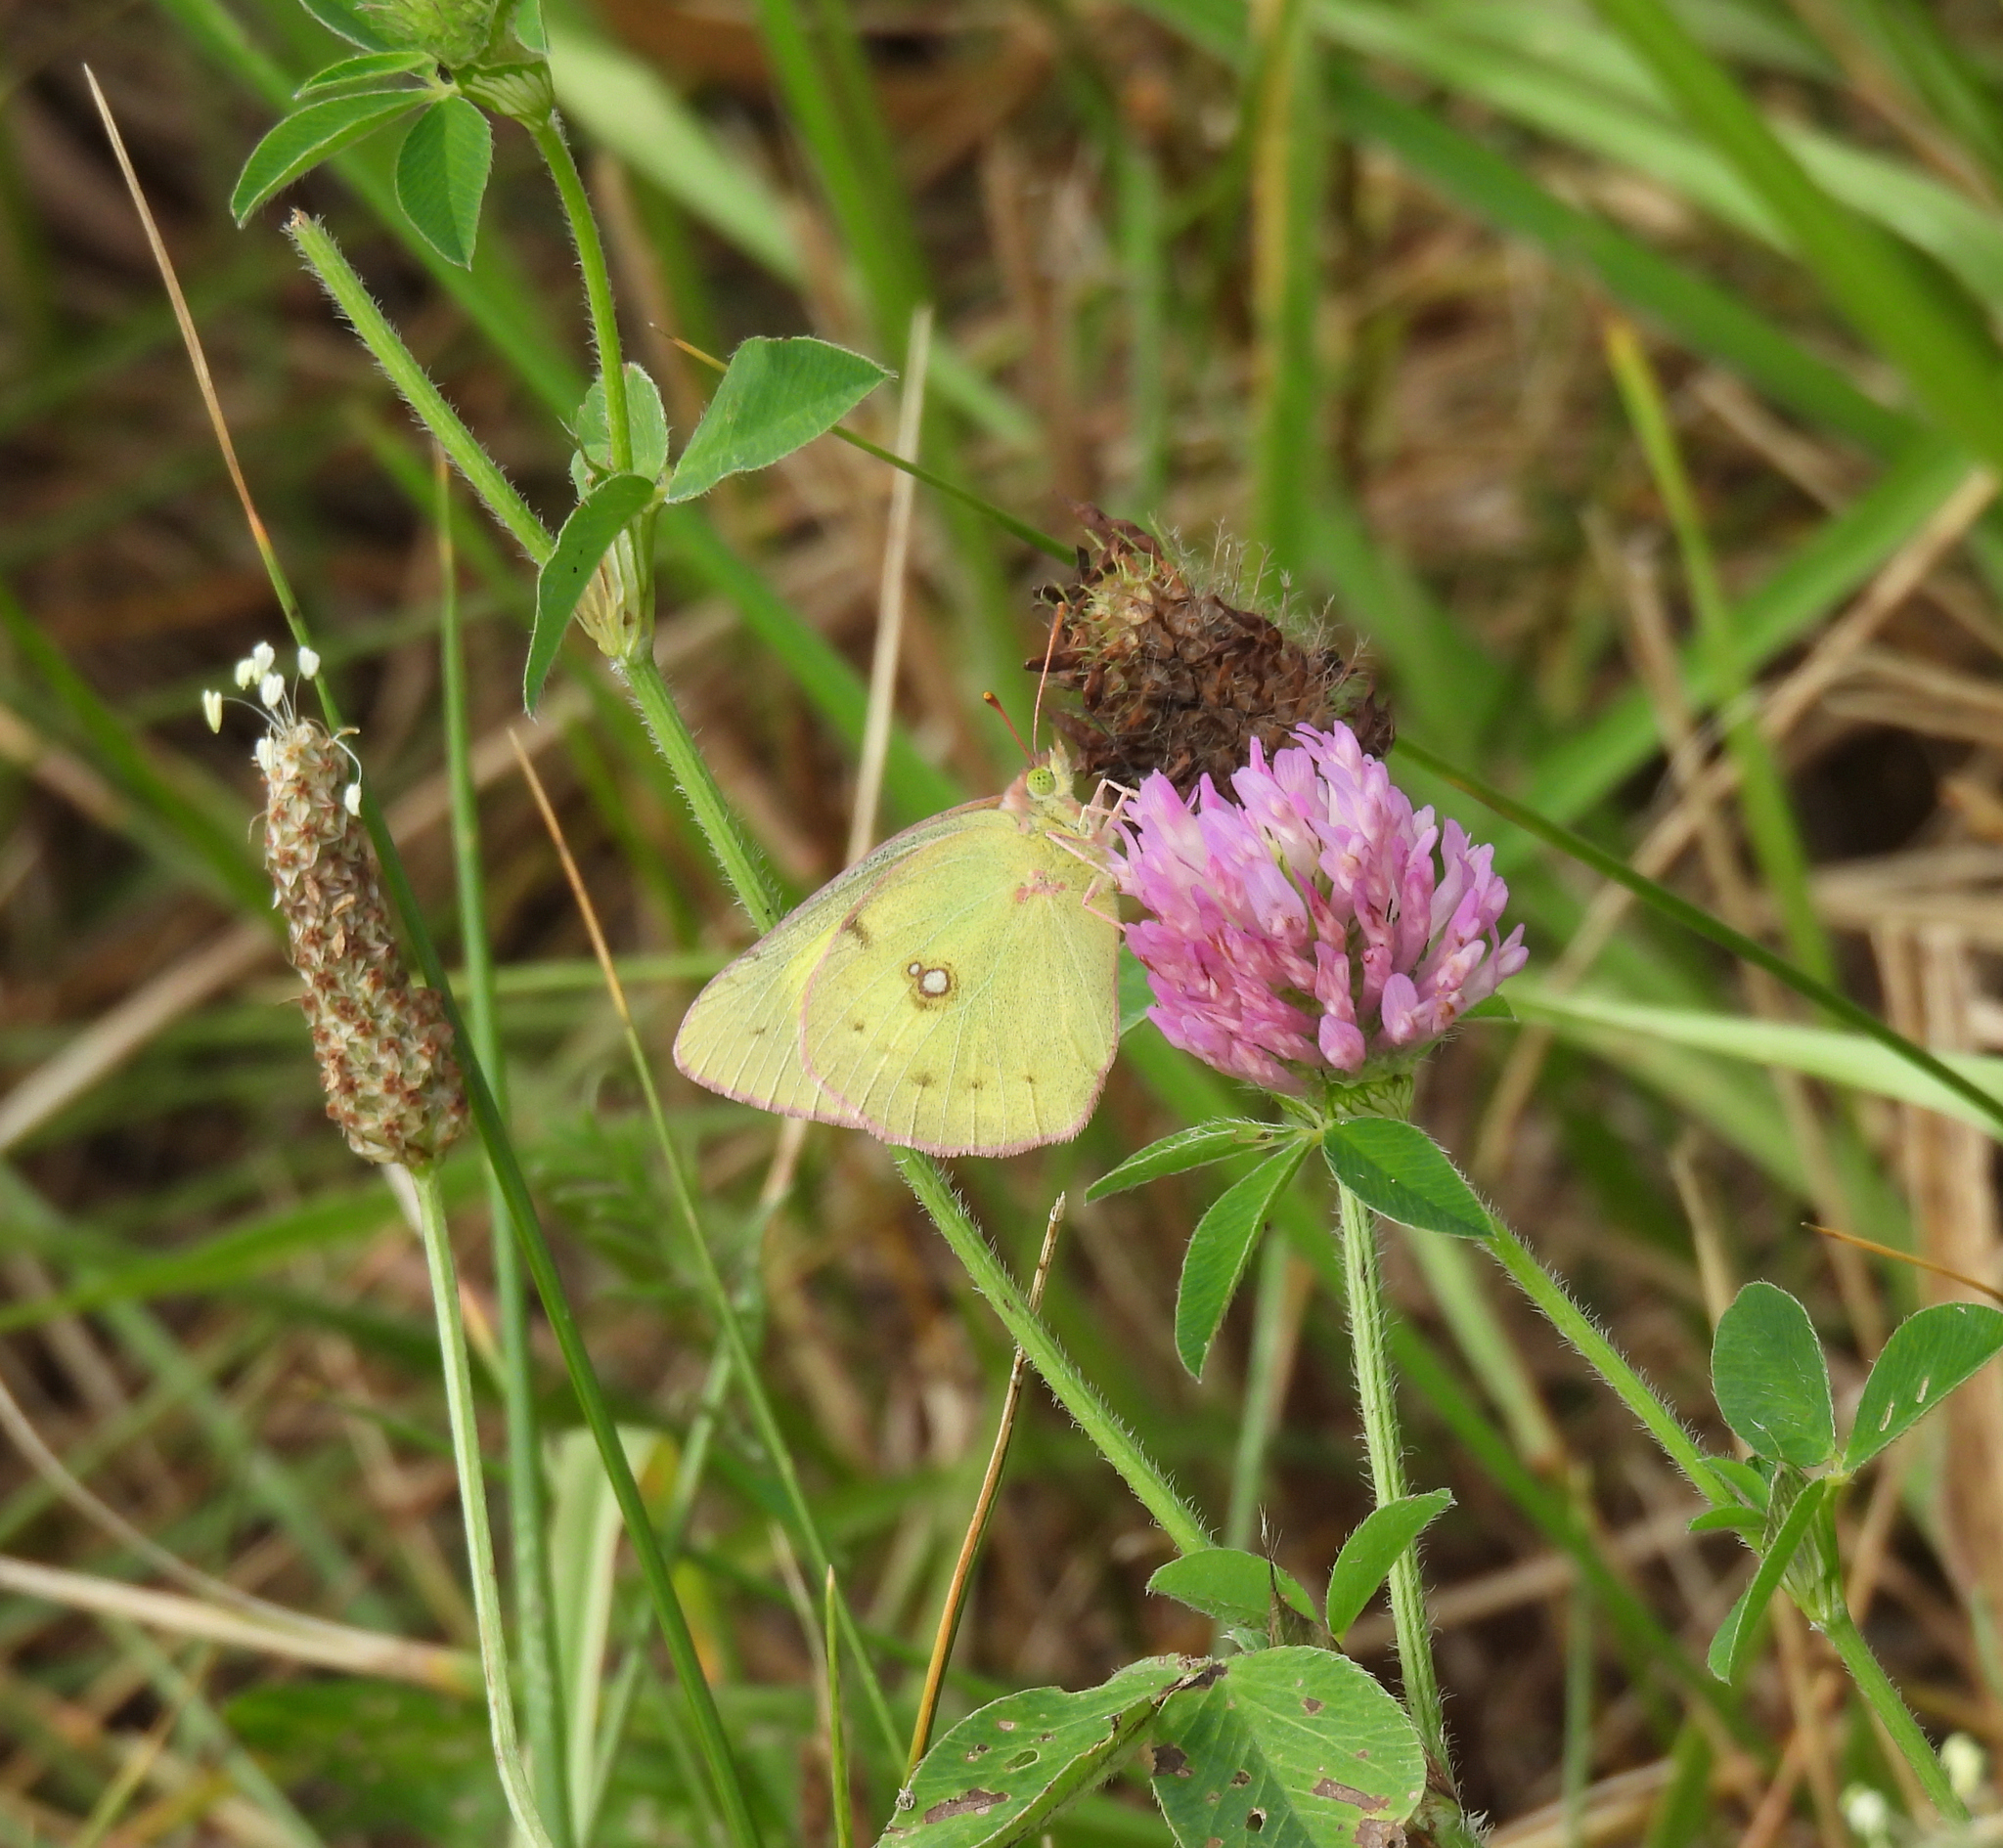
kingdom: Animalia
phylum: Arthropoda
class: Insecta
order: Lepidoptera
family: Pieridae
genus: Colias
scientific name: Colias philodice
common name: Clouded sulphur
